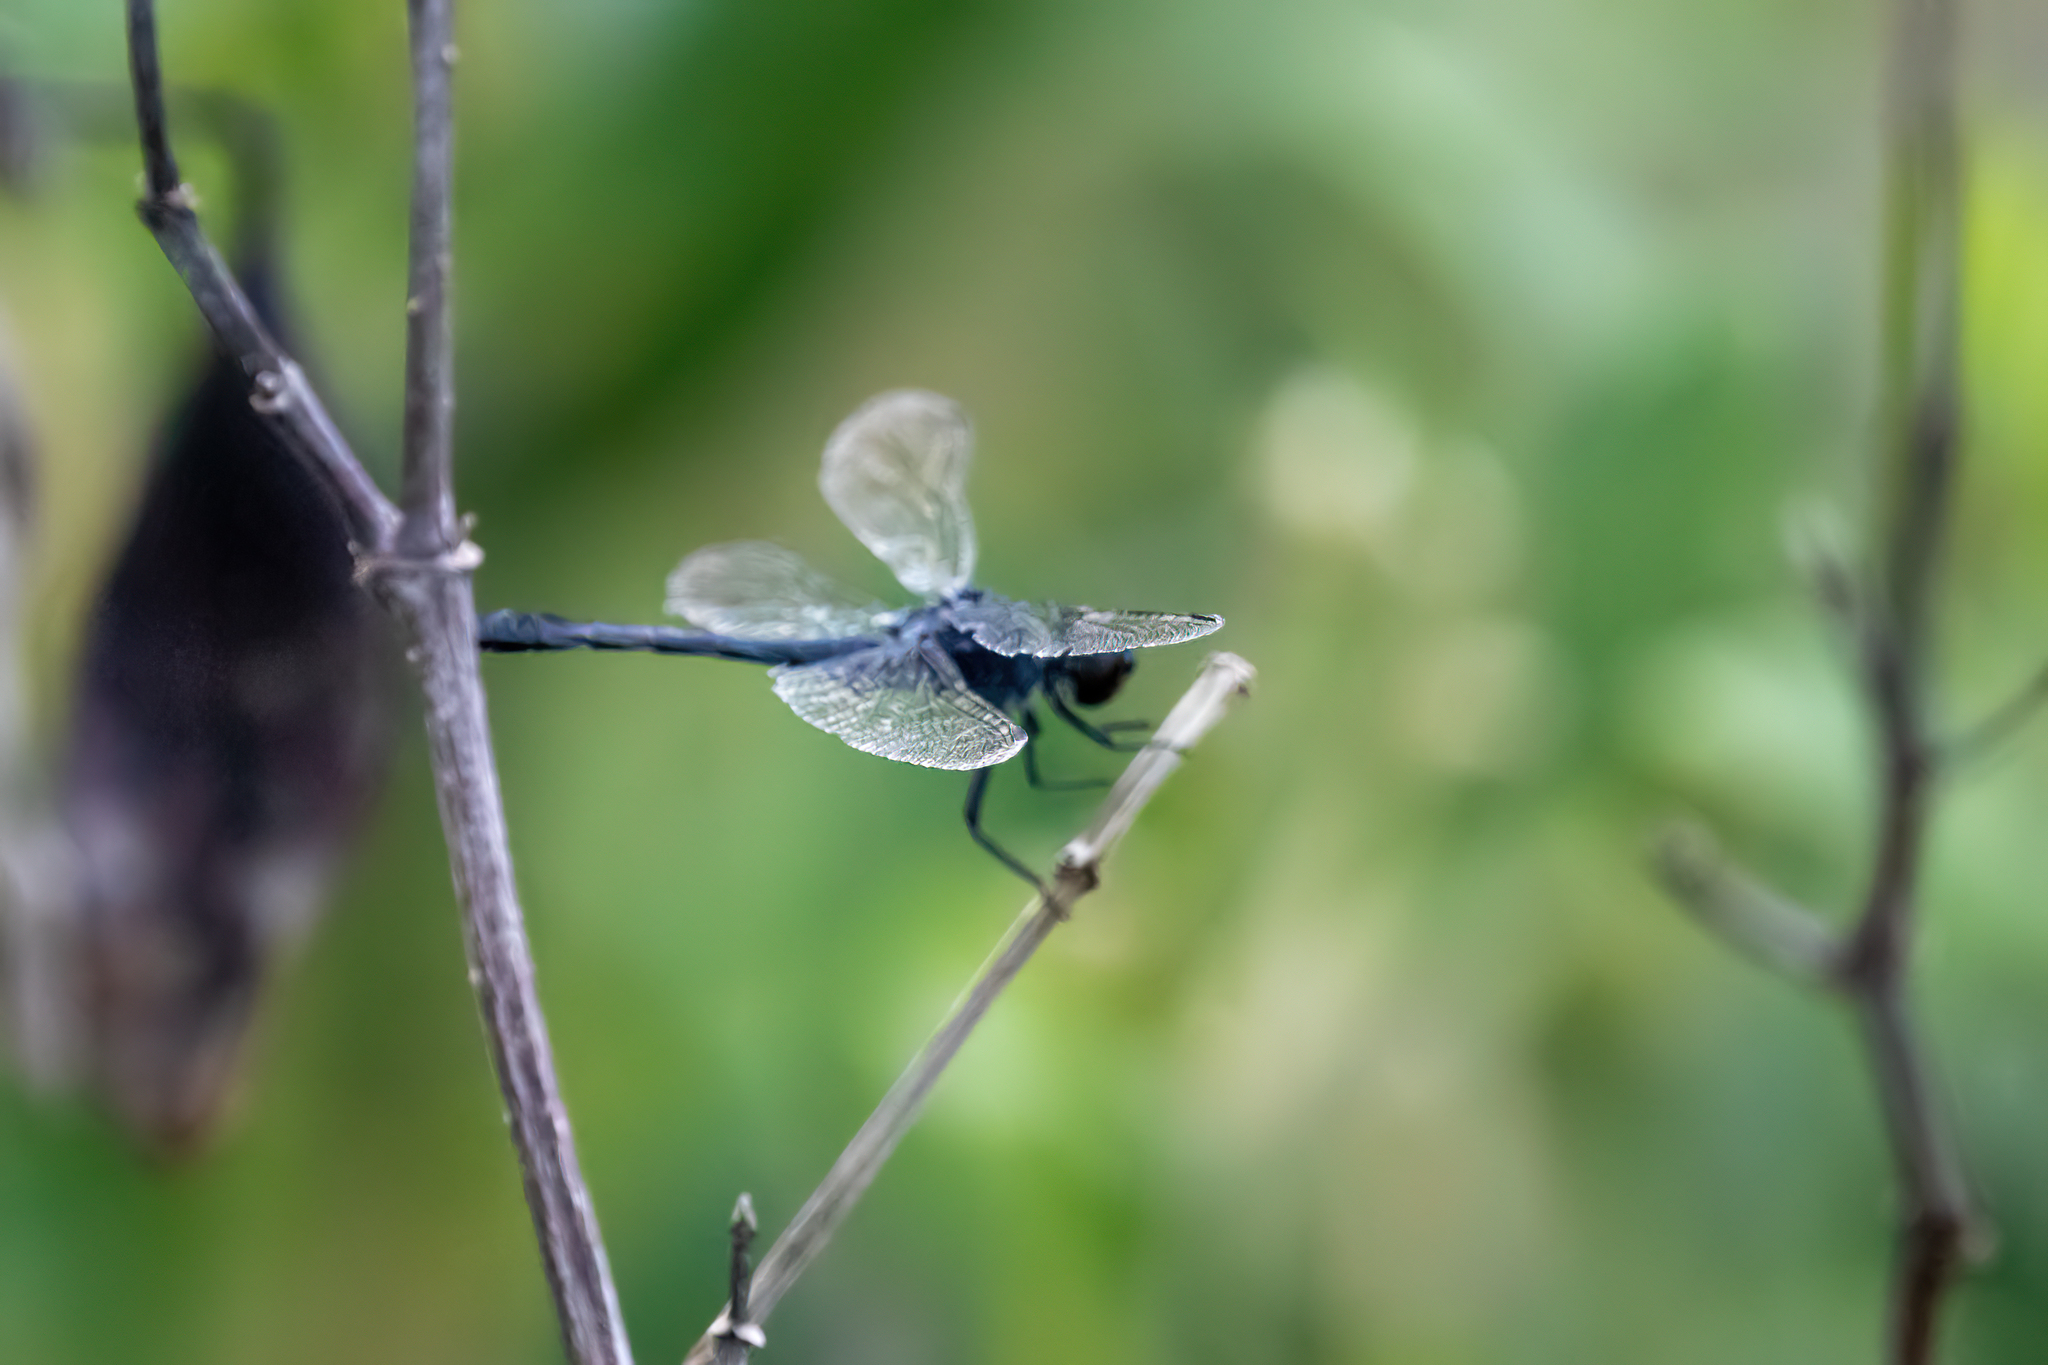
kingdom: Animalia
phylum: Arthropoda
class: Insecta
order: Odonata
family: Libellulidae
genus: Erythrodiplax
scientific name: Erythrodiplax berenice
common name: Seaside dragonlet
